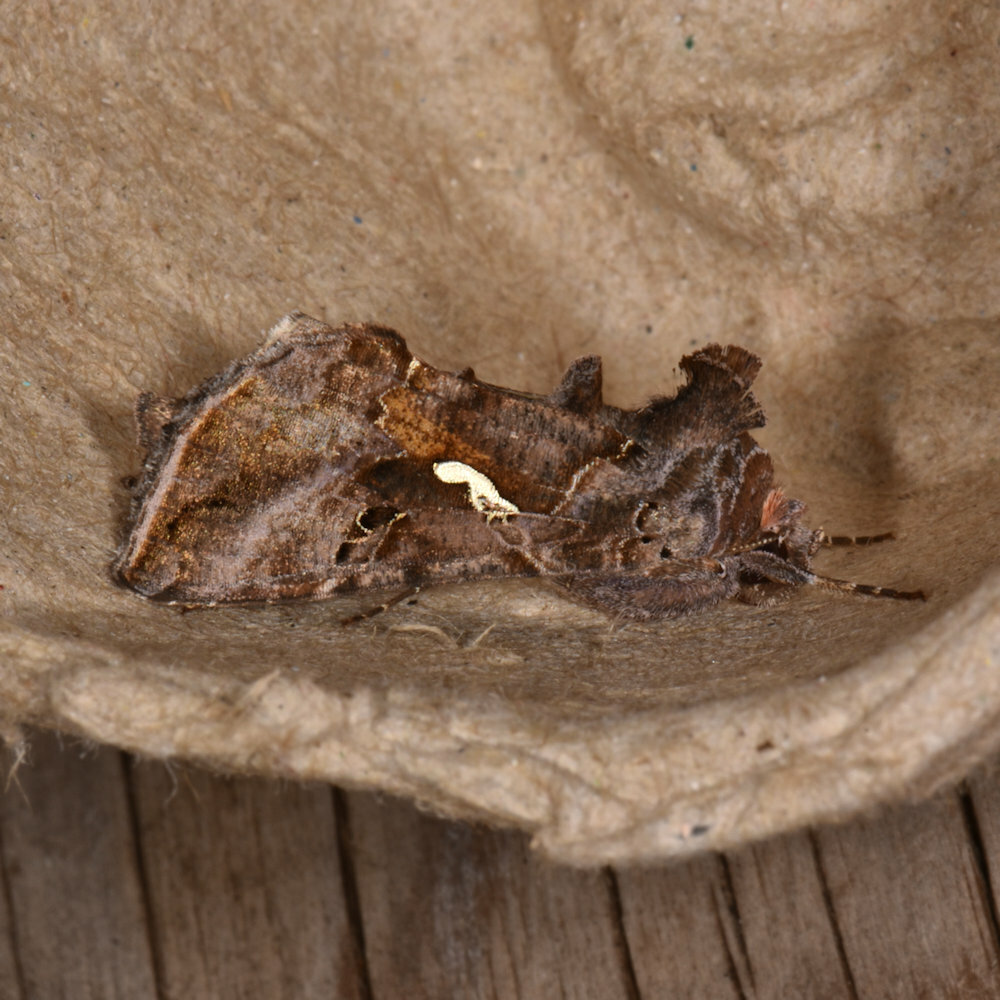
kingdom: Animalia
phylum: Arthropoda
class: Insecta
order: Lepidoptera
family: Noctuidae
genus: Autographa
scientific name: Autographa precationis
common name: Common looper moth
